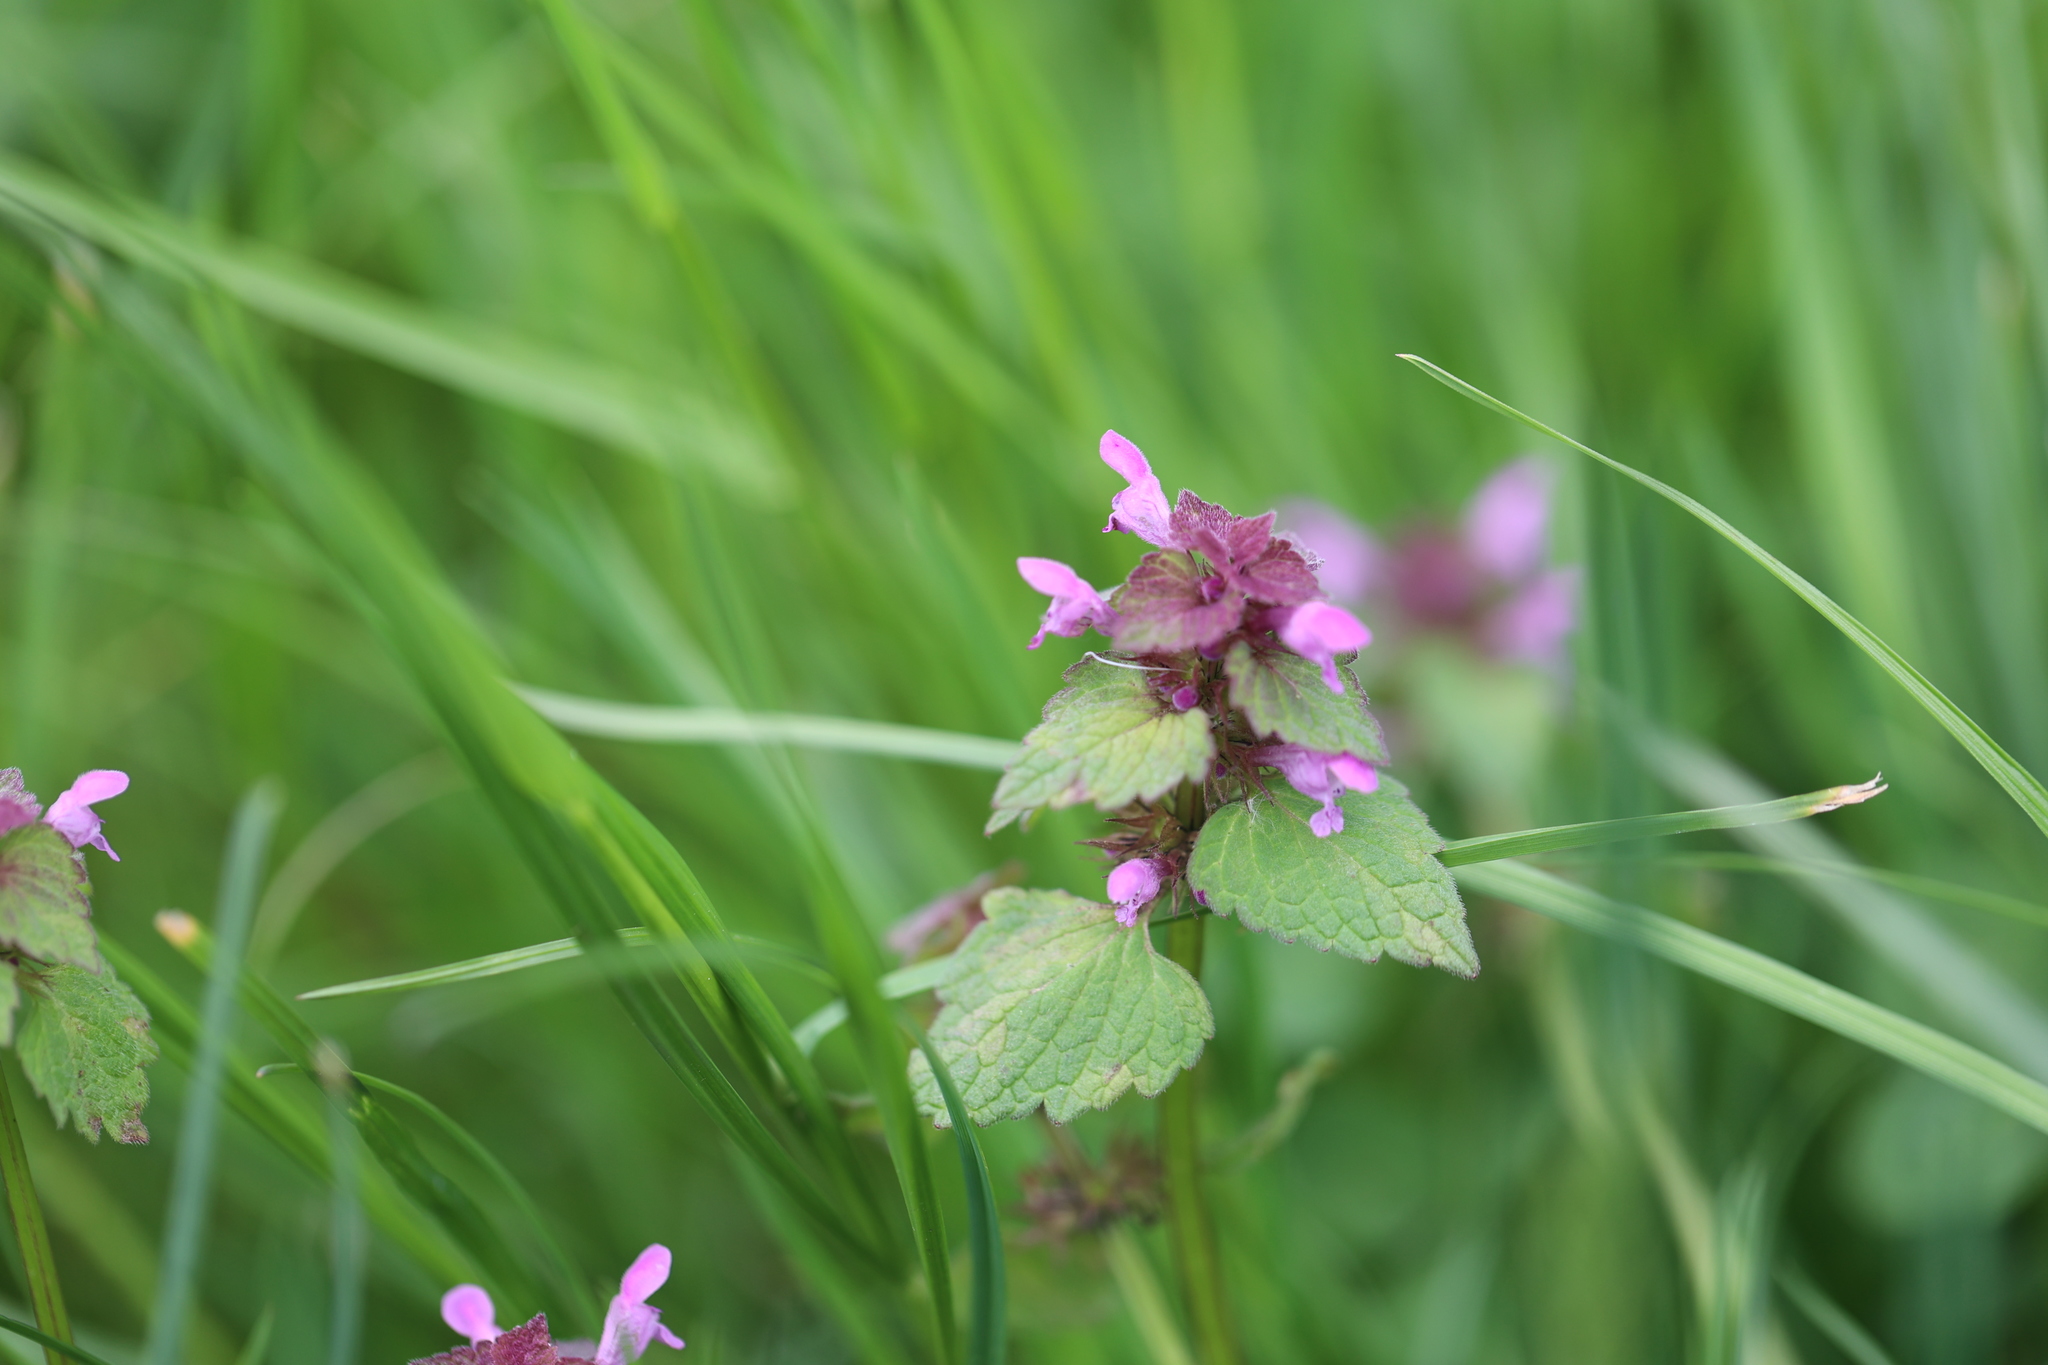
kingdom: Plantae
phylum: Tracheophyta
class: Magnoliopsida
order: Lamiales
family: Lamiaceae
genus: Lamium
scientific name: Lamium purpureum
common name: Red dead-nettle
